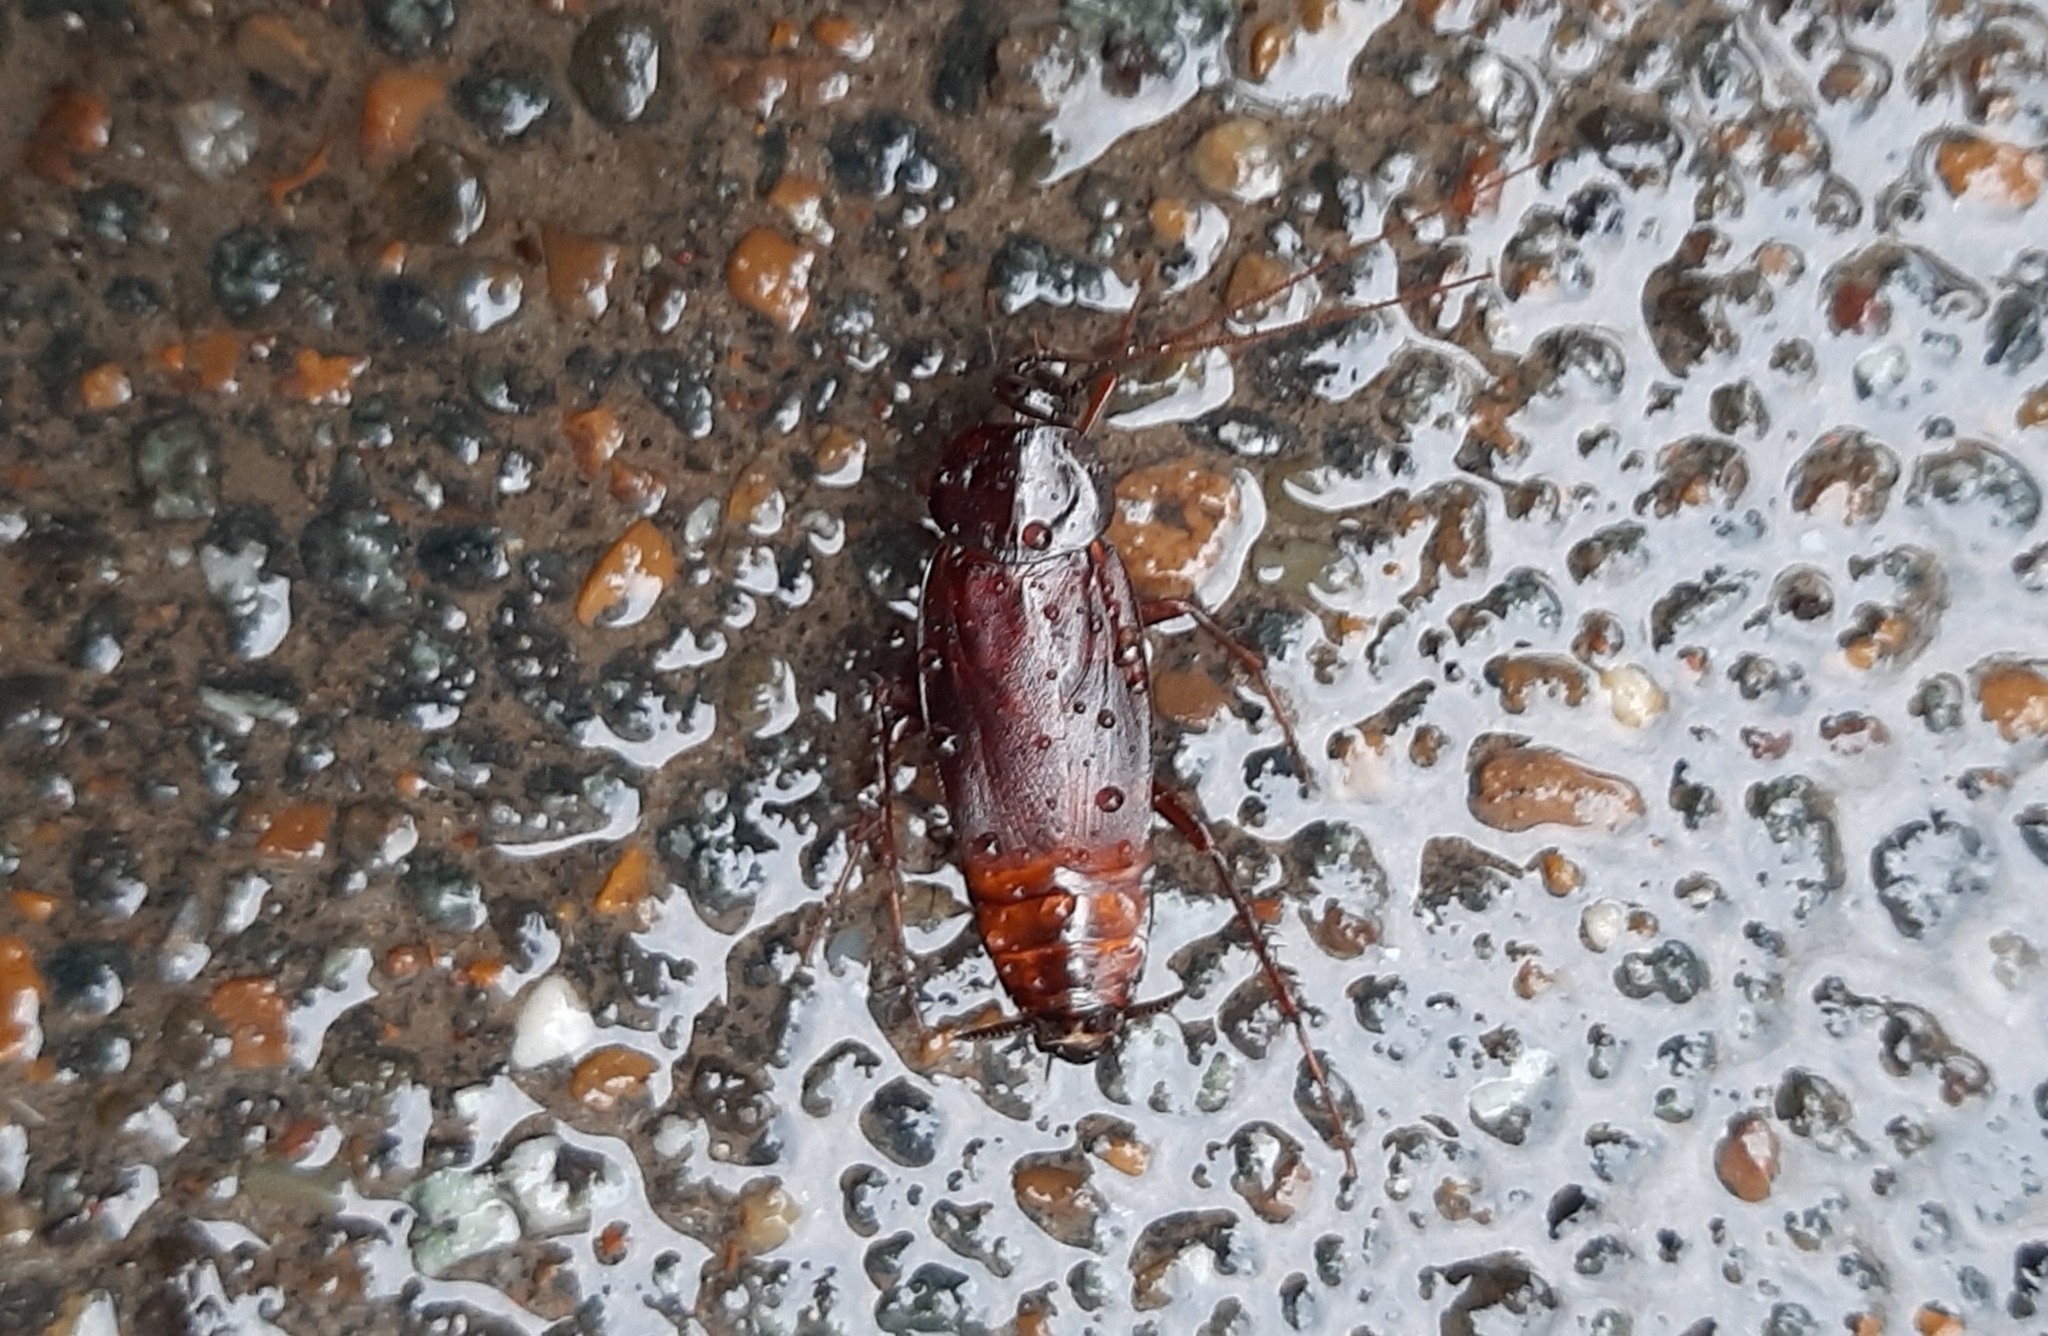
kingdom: Animalia
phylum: Arthropoda
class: Insecta
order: Blattodea
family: Blattidae
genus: Blatta
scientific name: Blatta orientalis
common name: Oriental cockroach
